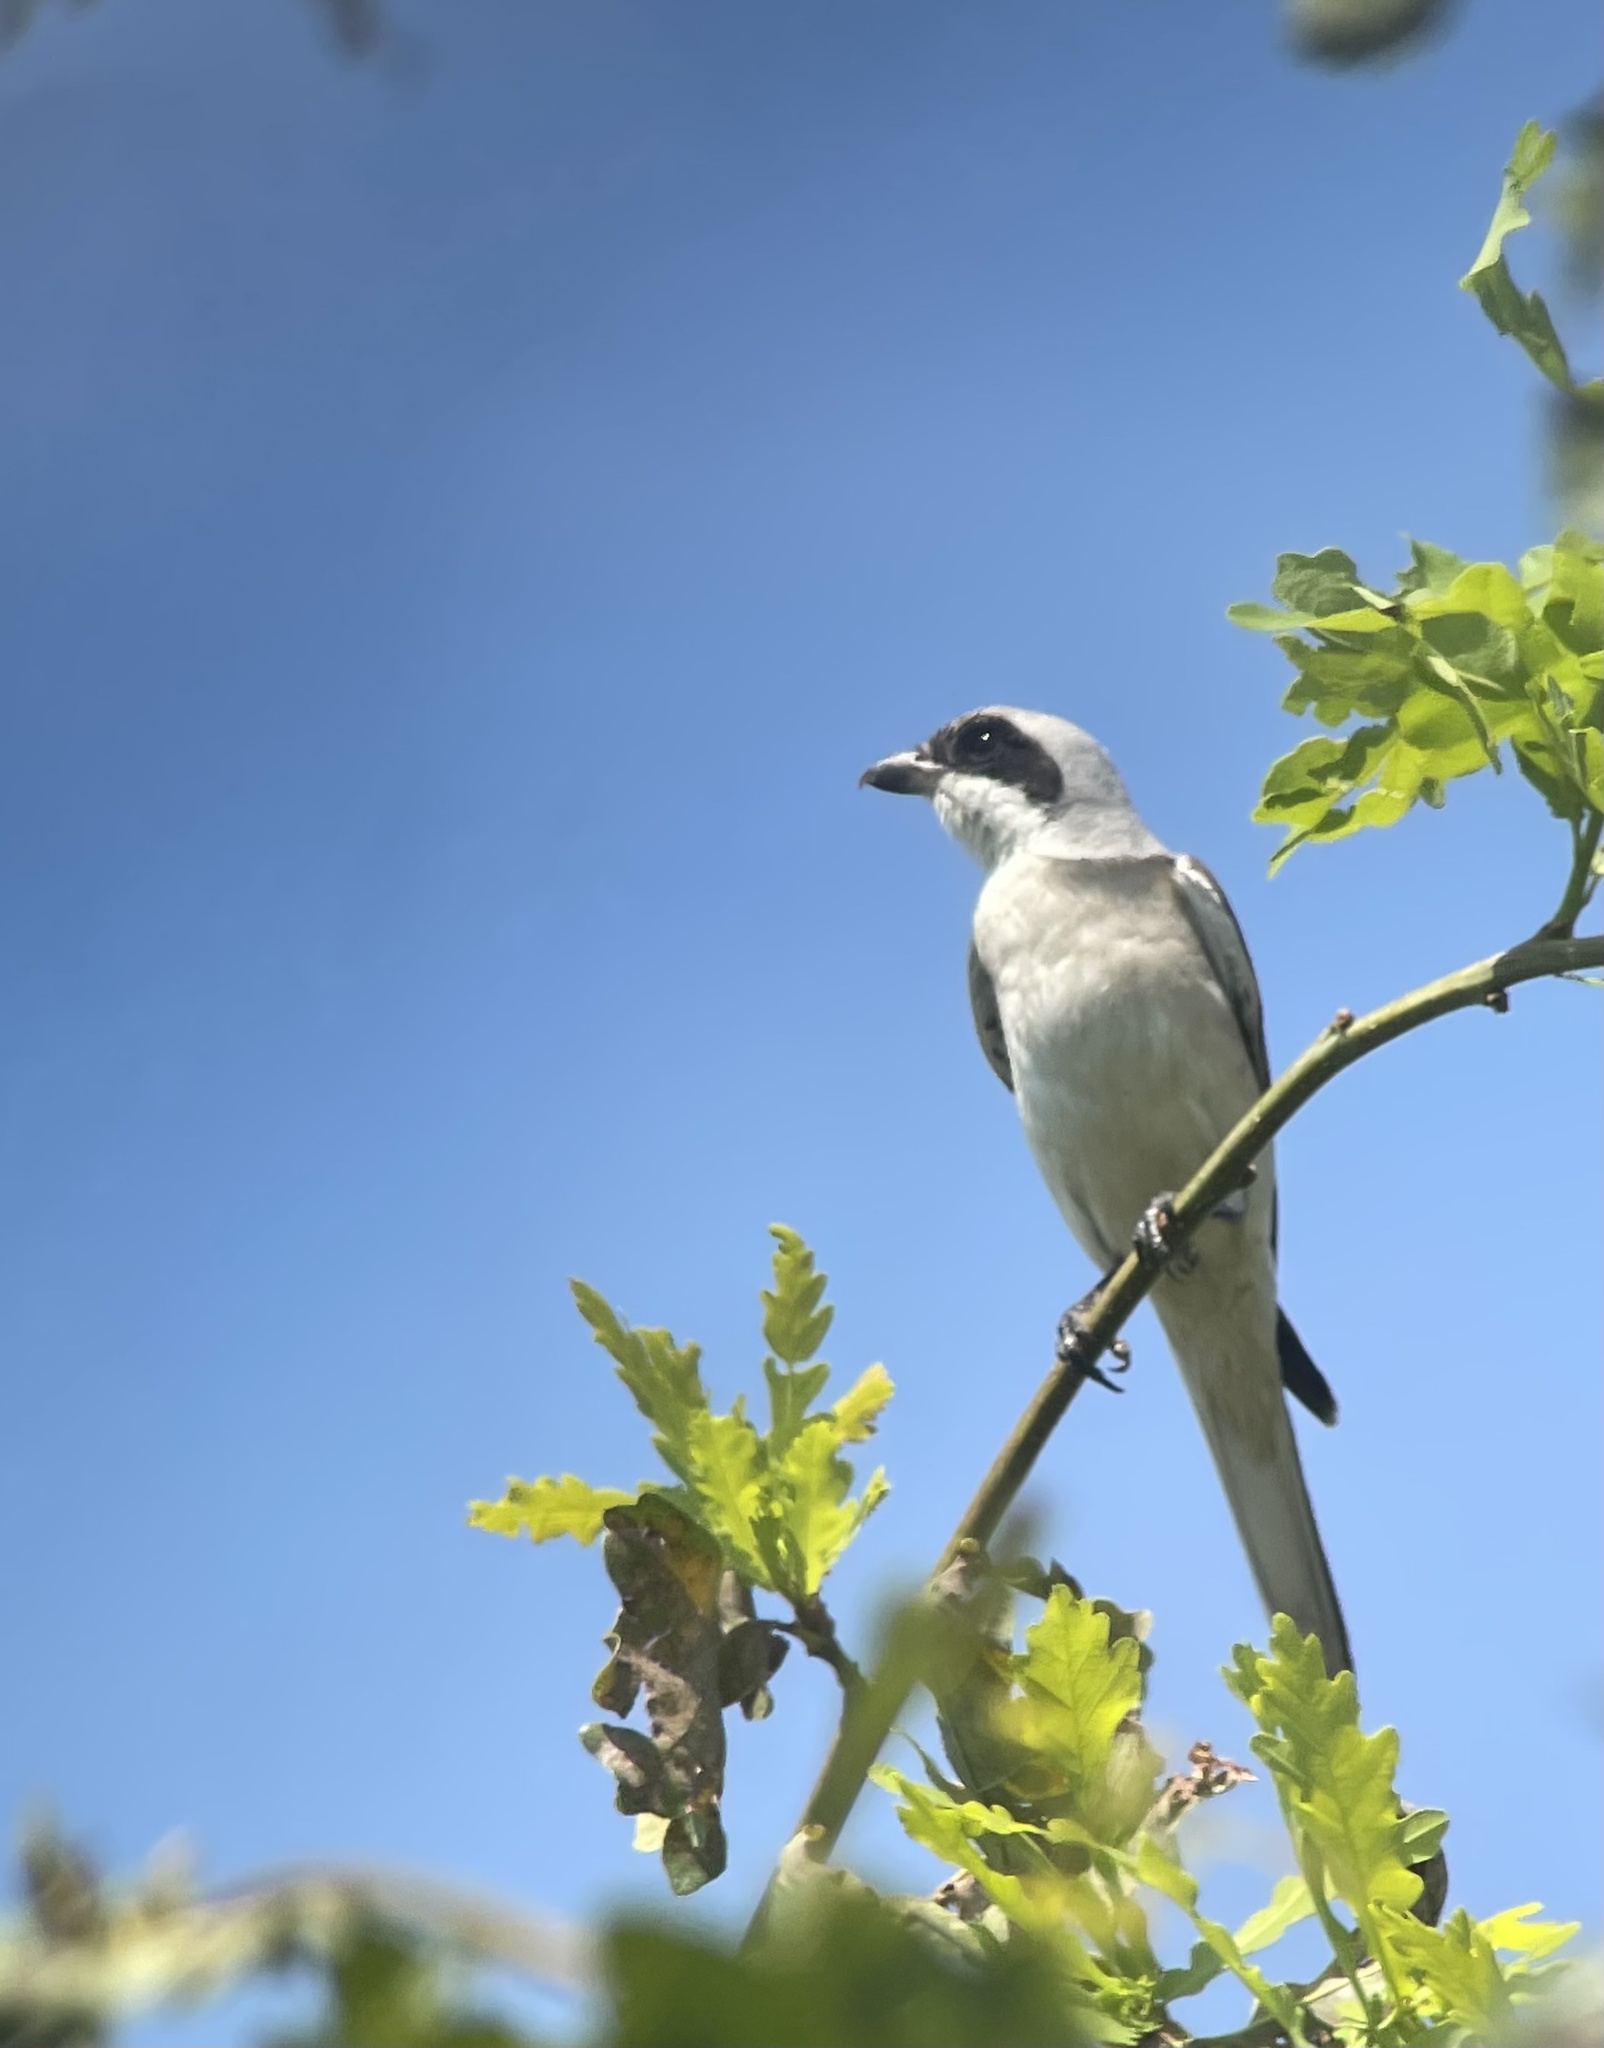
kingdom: Animalia
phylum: Chordata
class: Aves
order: Passeriformes
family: Laniidae
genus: Lanius
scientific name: Lanius minor
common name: Lesser grey shrike
